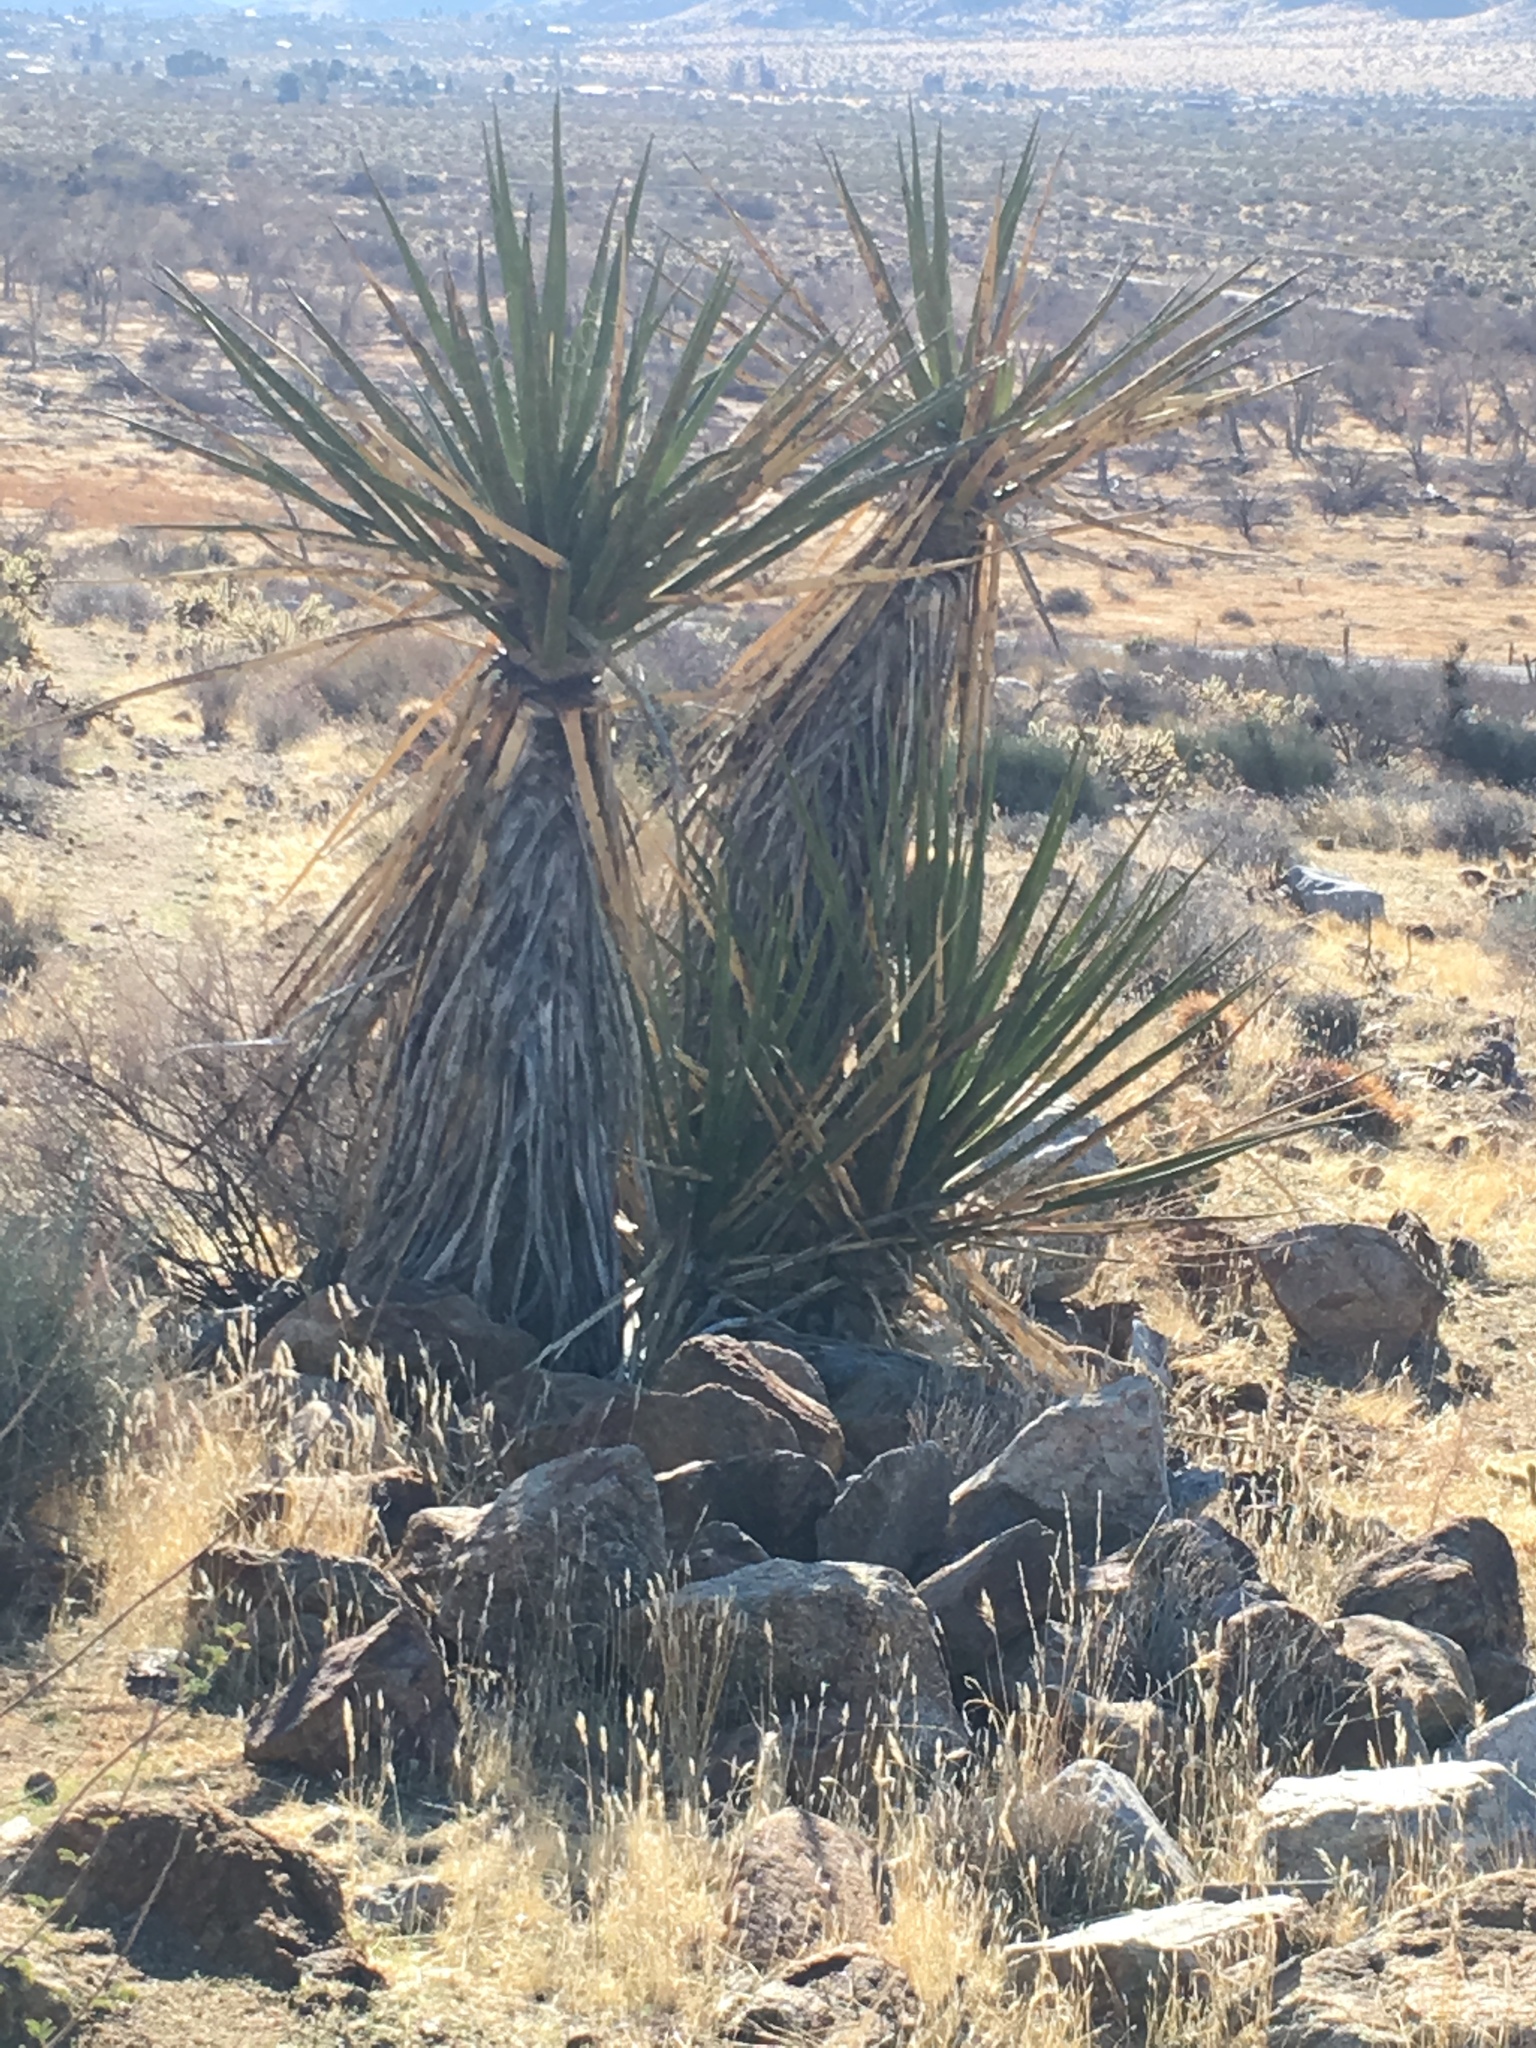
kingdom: Plantae
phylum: Tracheophyta
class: Liliopsida
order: Asparagales
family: Asparagaceae
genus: Yucca
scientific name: Yucca schidigera
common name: Mojave yucca
